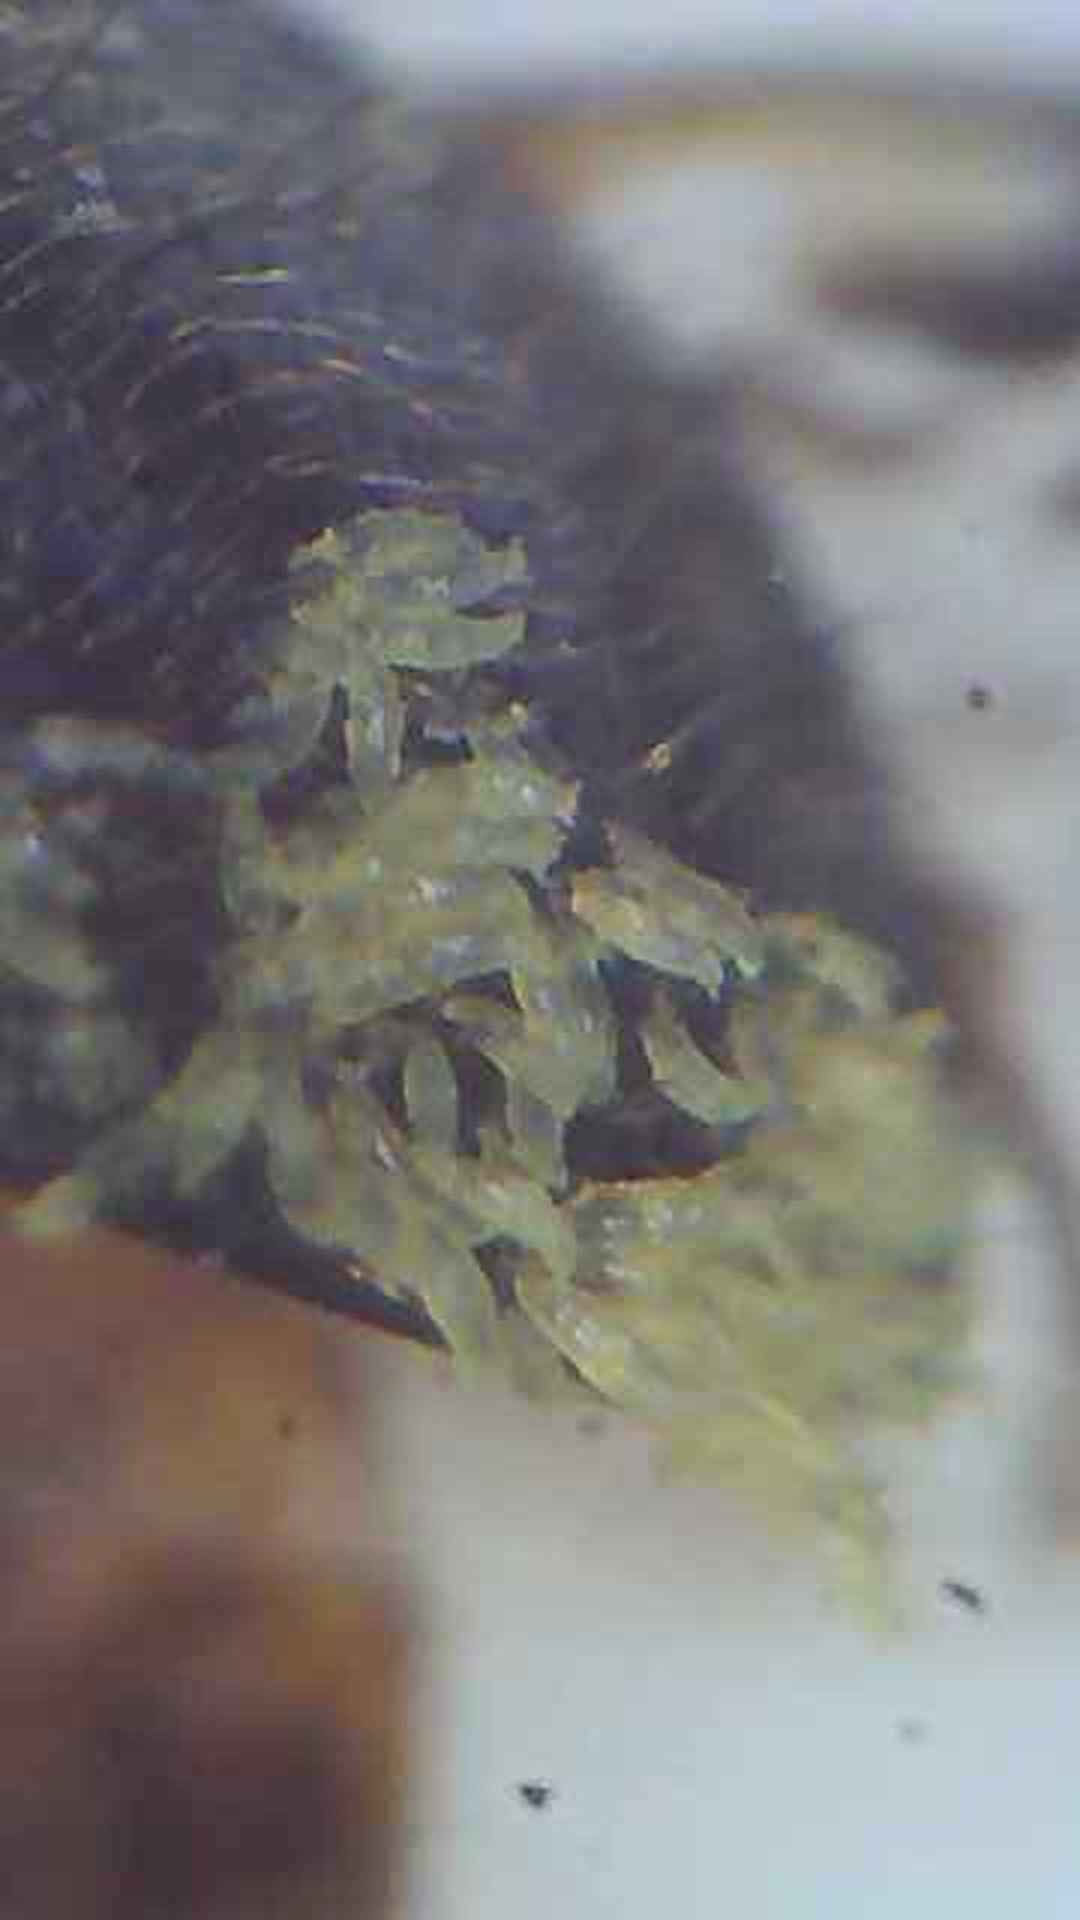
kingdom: Fungi
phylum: Ascomycota
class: Laboulbeniomycetes
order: Laboulbeniales
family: Laboulbeniaceae
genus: Hesperomyces
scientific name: Hesperomyces coccinelloides
